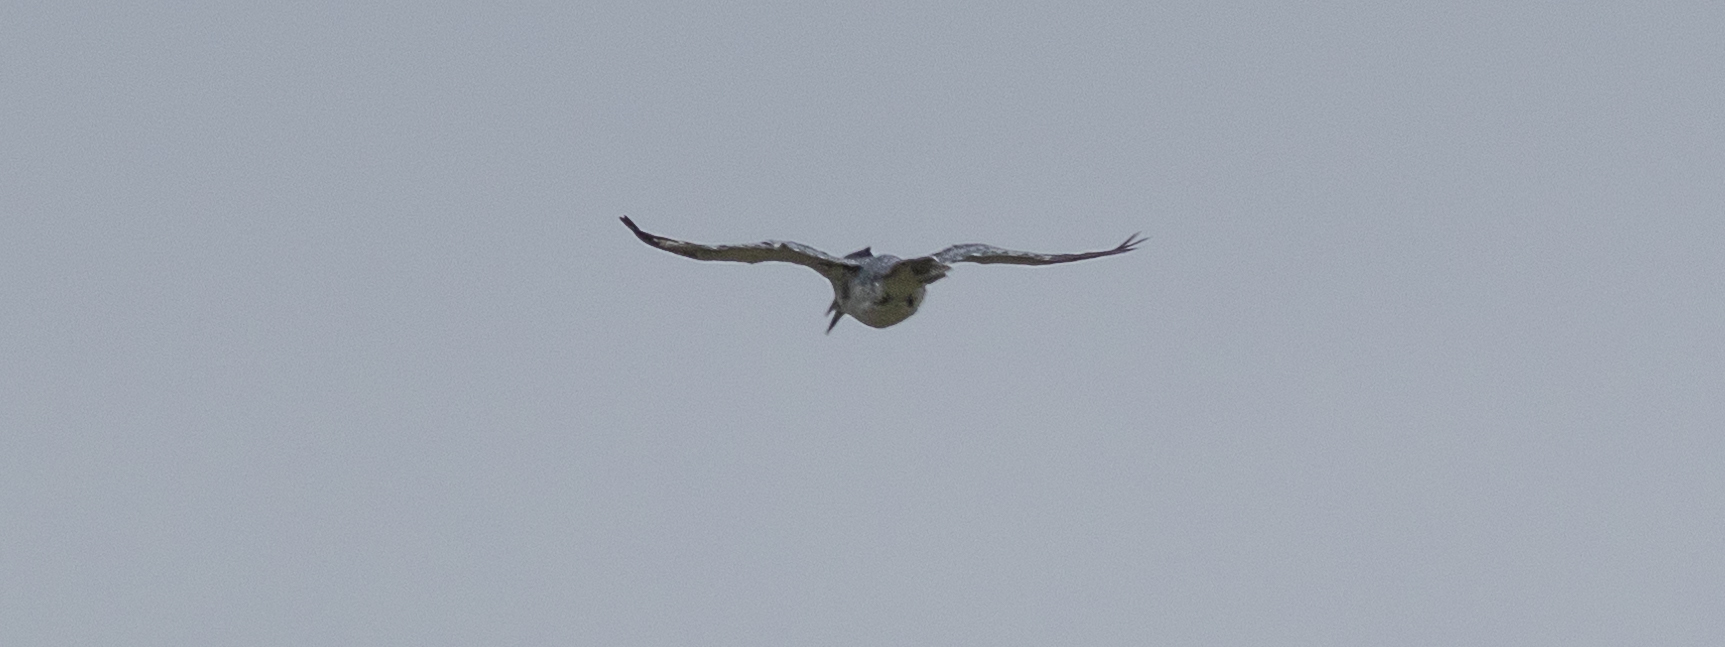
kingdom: Animalia
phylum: Chordata
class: Aves
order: Coraciiformes
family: Alcedinidae
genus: Megaceryle
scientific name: Megaceryle alcyon
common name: Belted kingfisher
